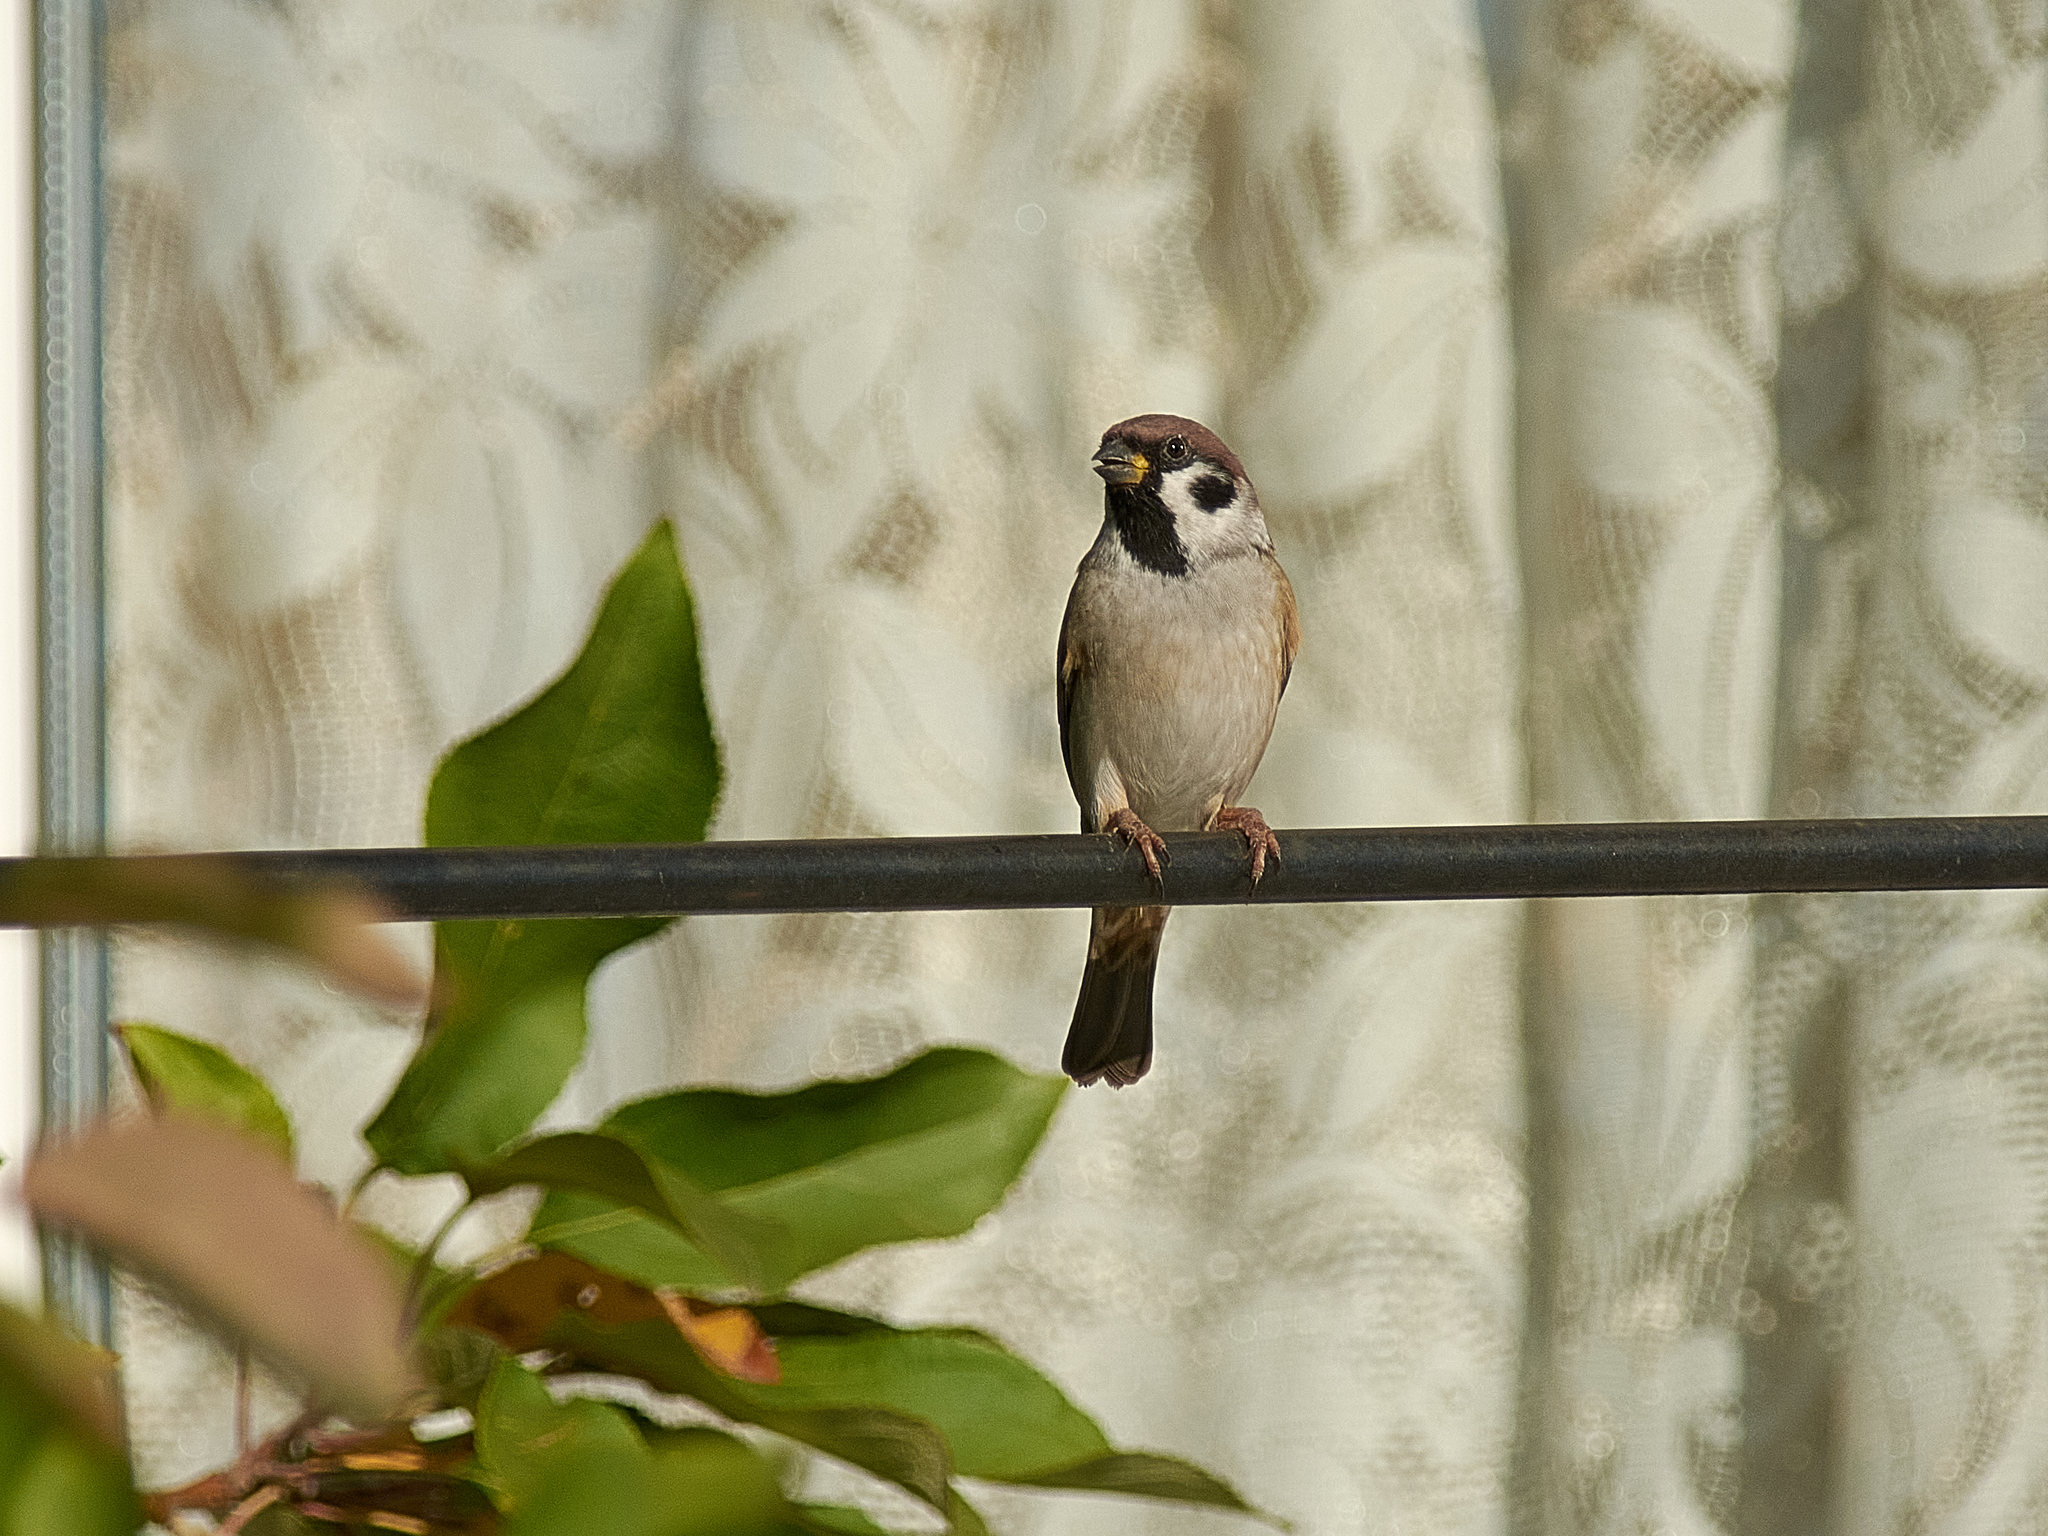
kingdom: Animalia
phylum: Chordata
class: Aves
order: Passeriformes
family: Passeridae
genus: Passer
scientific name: Passer montanus
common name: Eurasian tree sparrow
